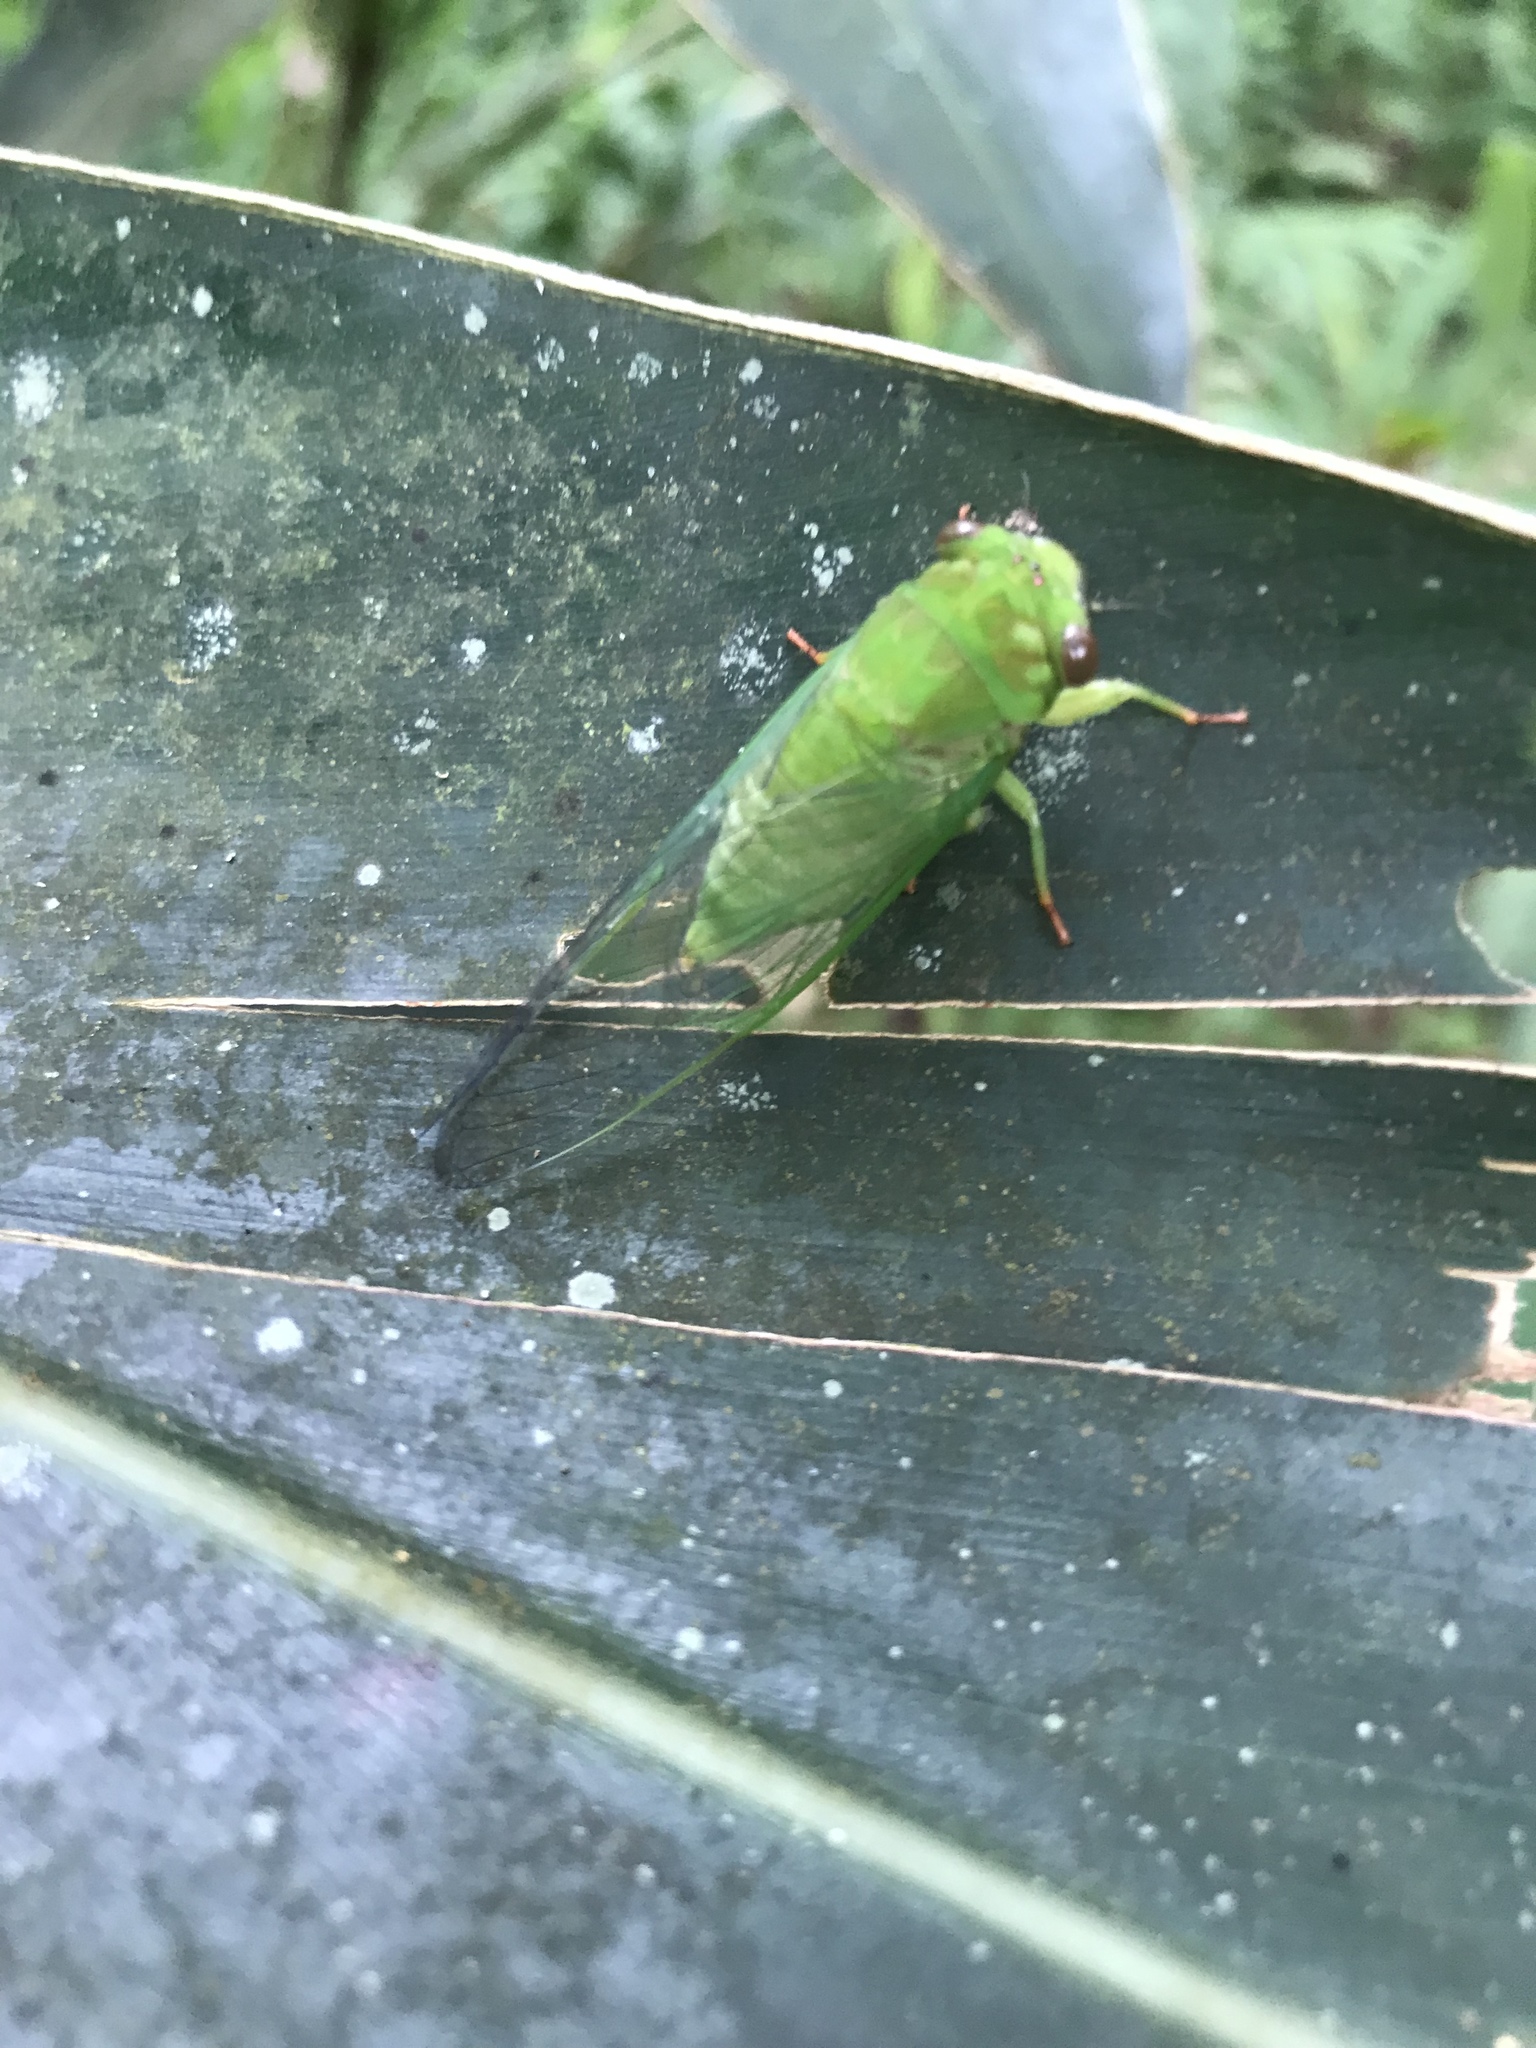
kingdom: Animalia
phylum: Arthropoda
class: Insecta
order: Hemiptera
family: Cicadidae
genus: Chremistica
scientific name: Chremistica ochracea
